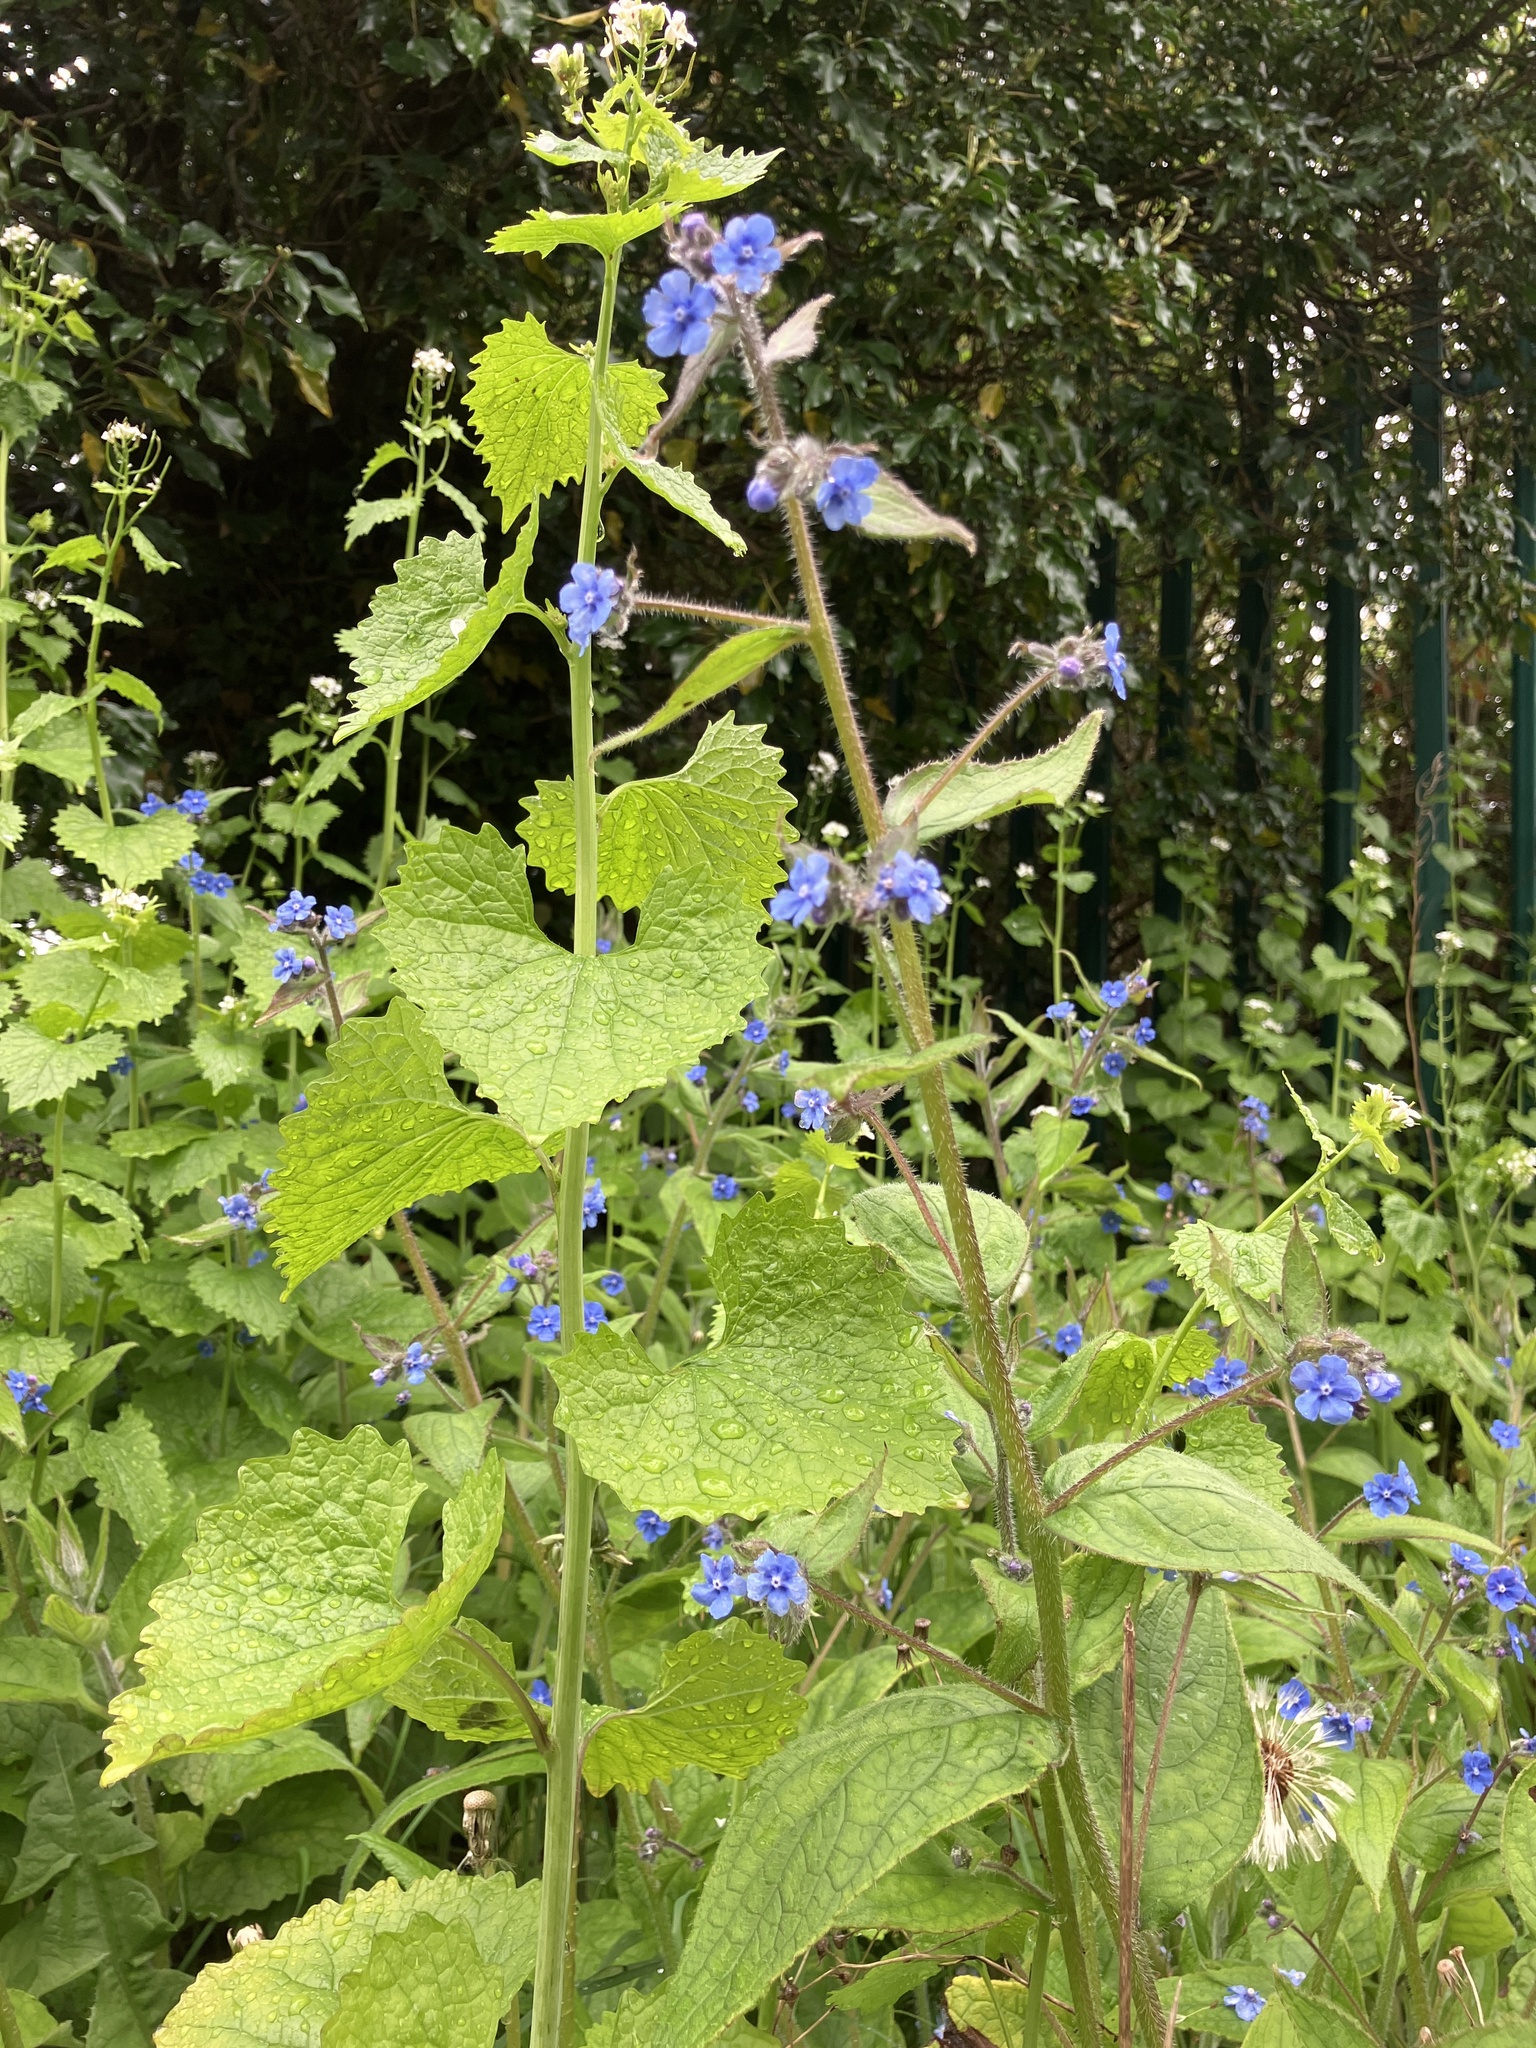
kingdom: Plantae
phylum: Tracheophyta
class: Magnoliopsida
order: Boraginales
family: Boraginaceae
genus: Pentaglottis
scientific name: Pentaglottis sempervirens
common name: Green alkanet
